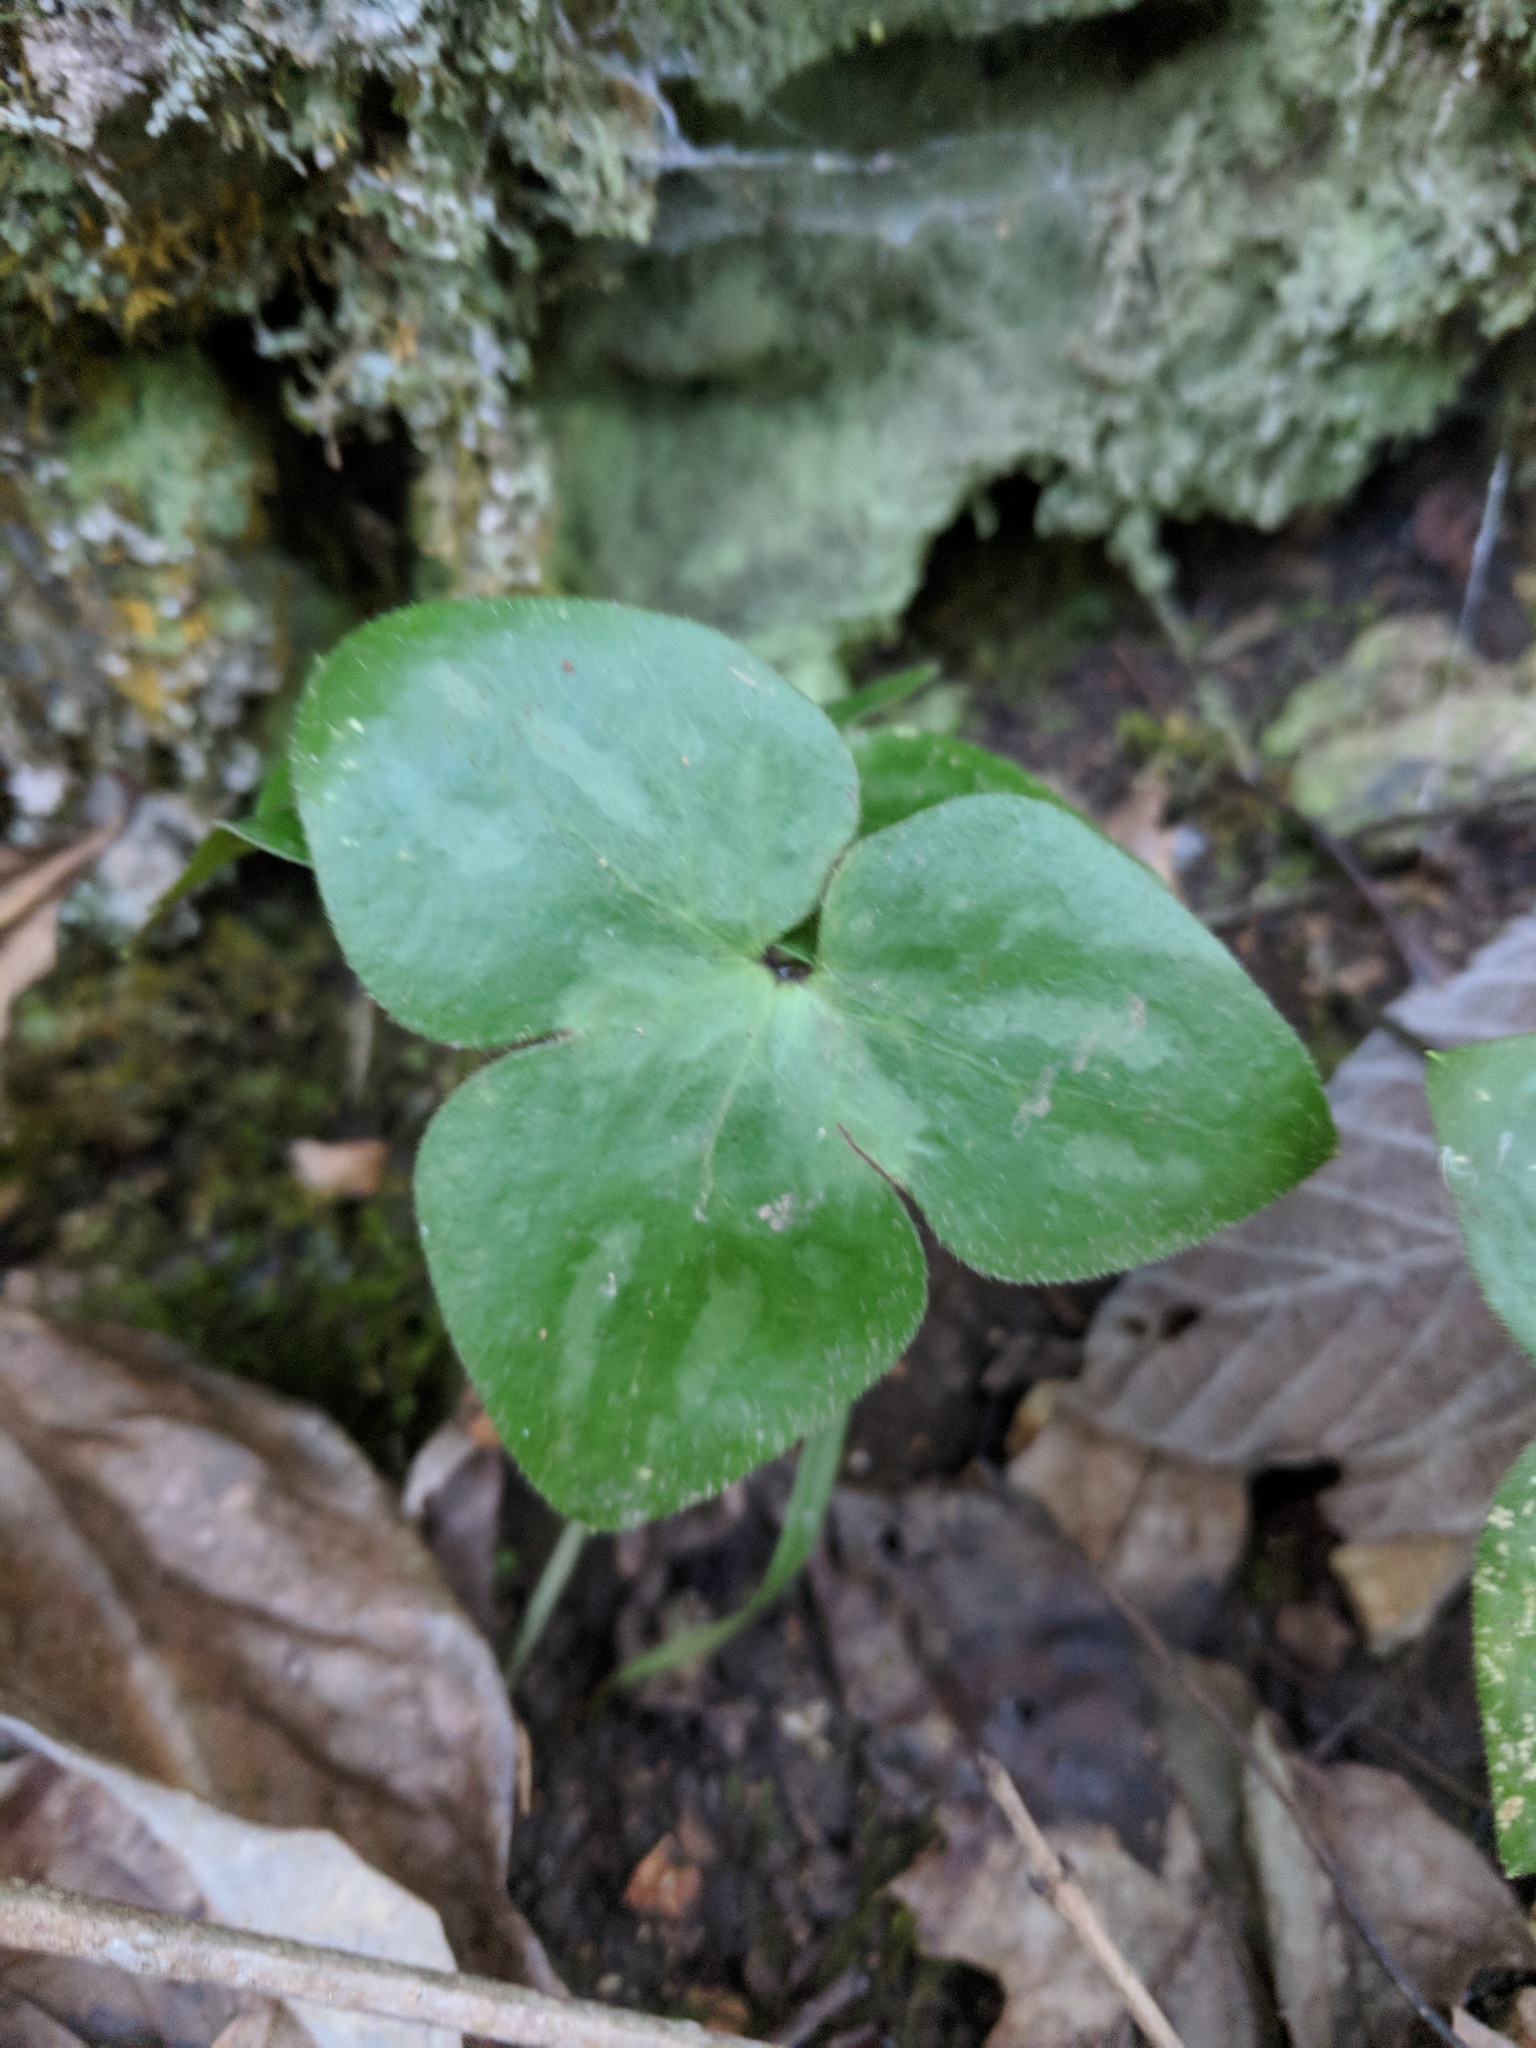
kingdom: Plantae
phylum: Tracheophyta
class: Magnoliopsida
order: Ranunculales
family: Ranunculaceae
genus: Hepatica
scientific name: Hepatica acutiloba
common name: Sharp-lobed hepatica
